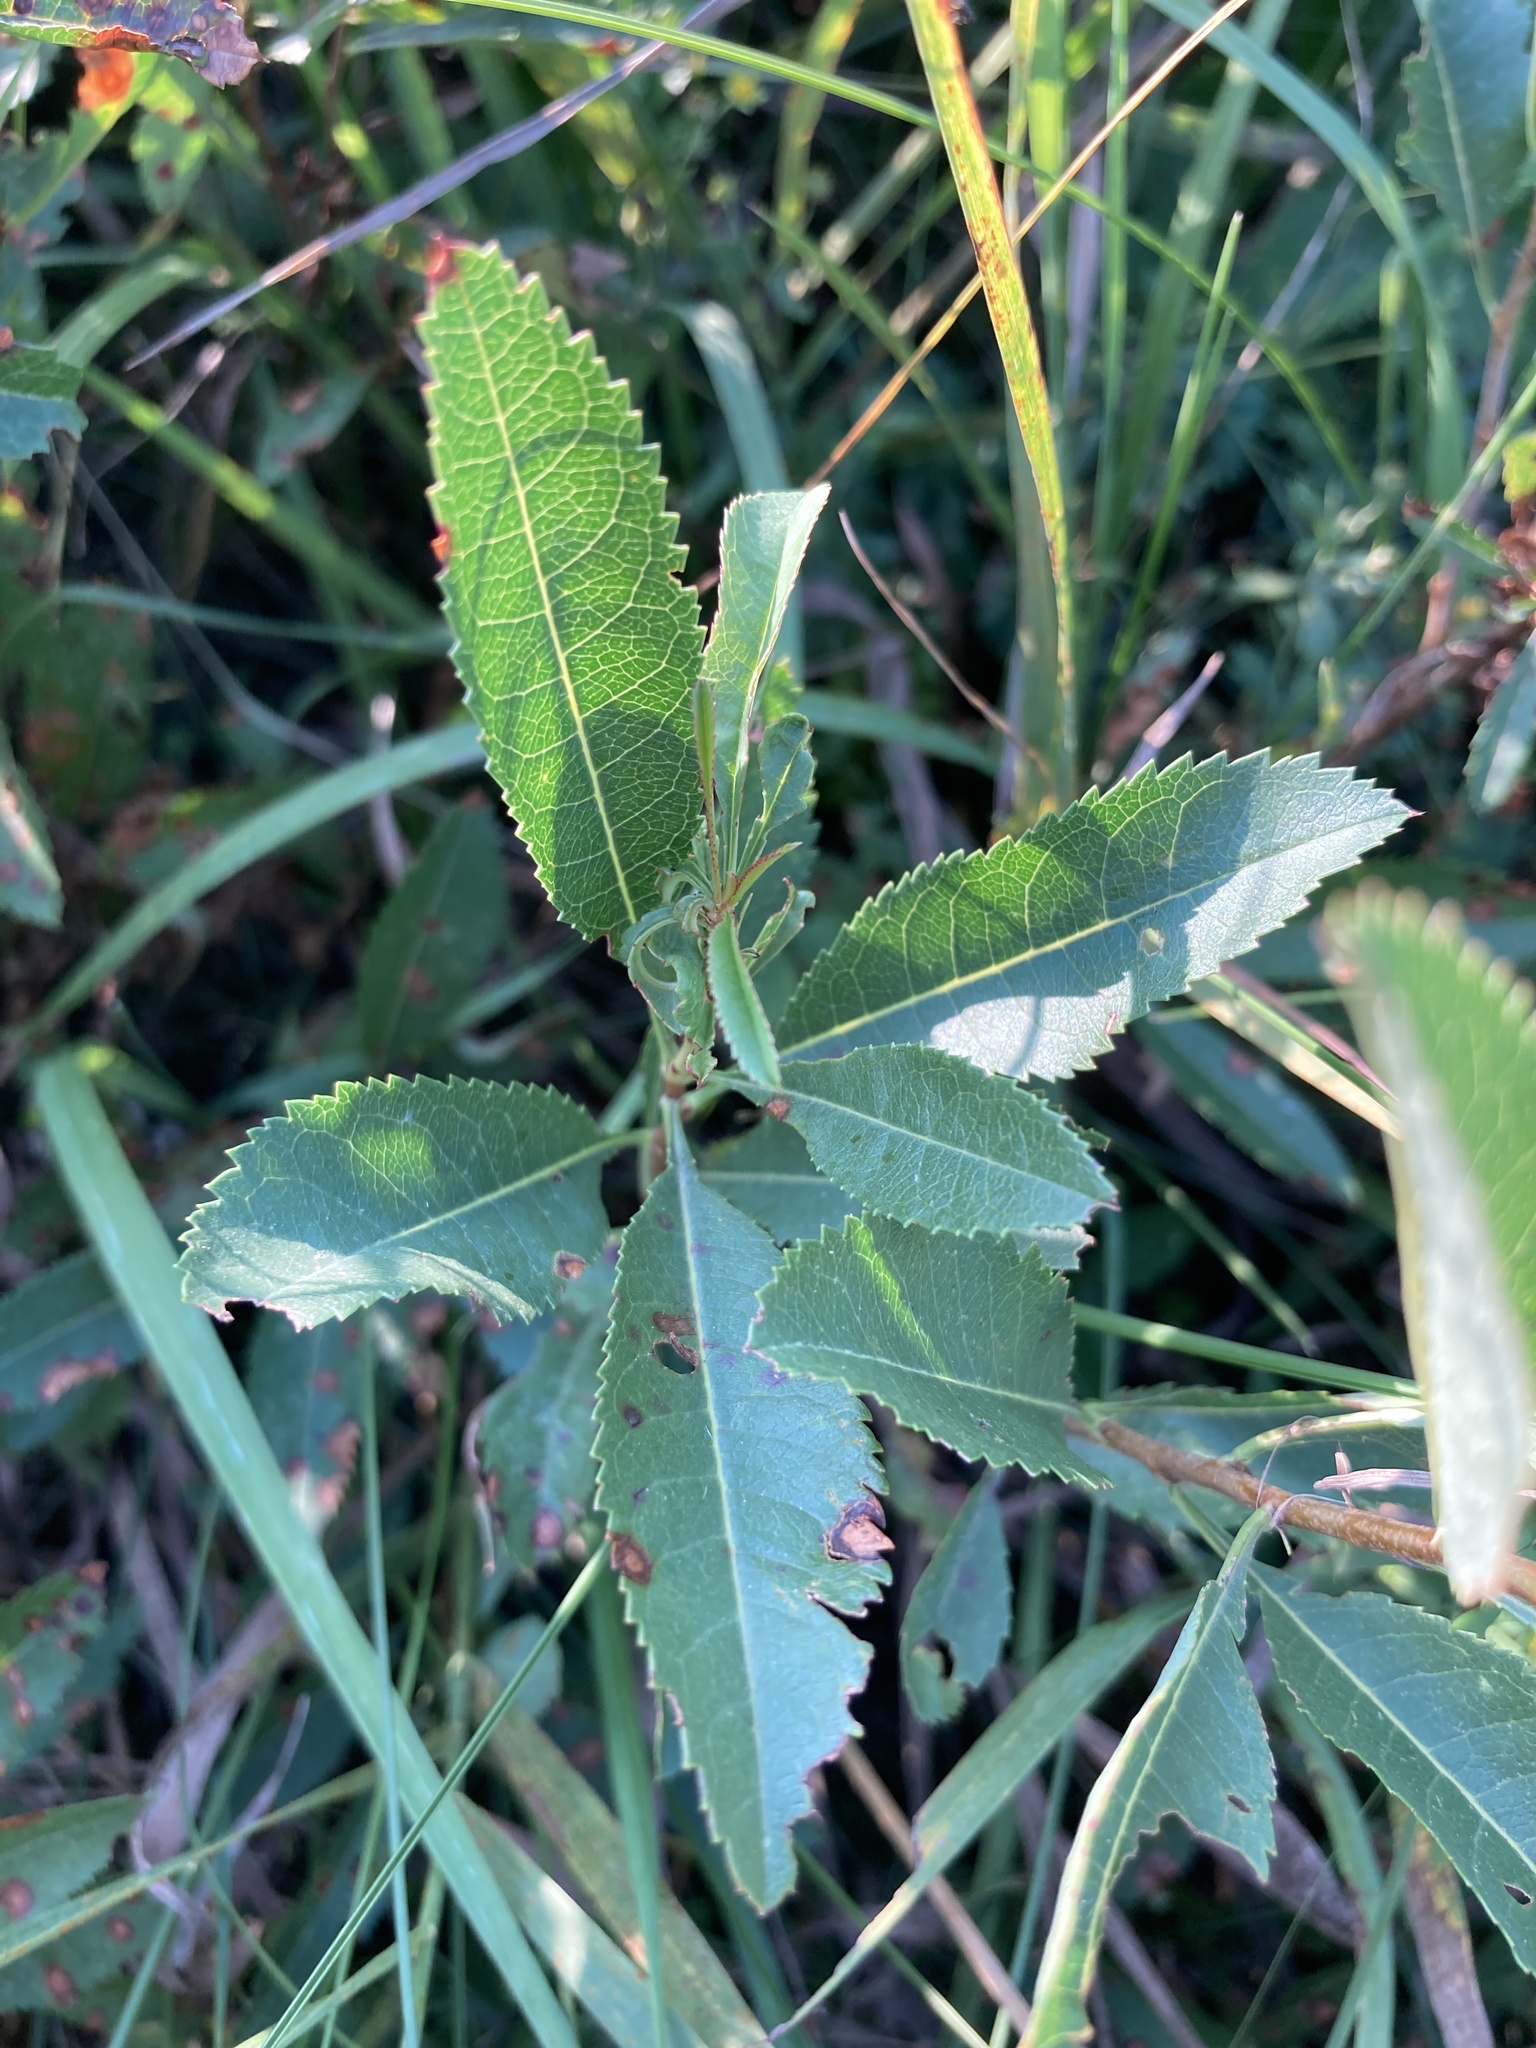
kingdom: Plantae
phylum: Tracheophyta
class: Magnoliopsida
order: Rosales
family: Rosaceae
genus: Prunus
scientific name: Prunus tenella
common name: Dwarf russian almond
